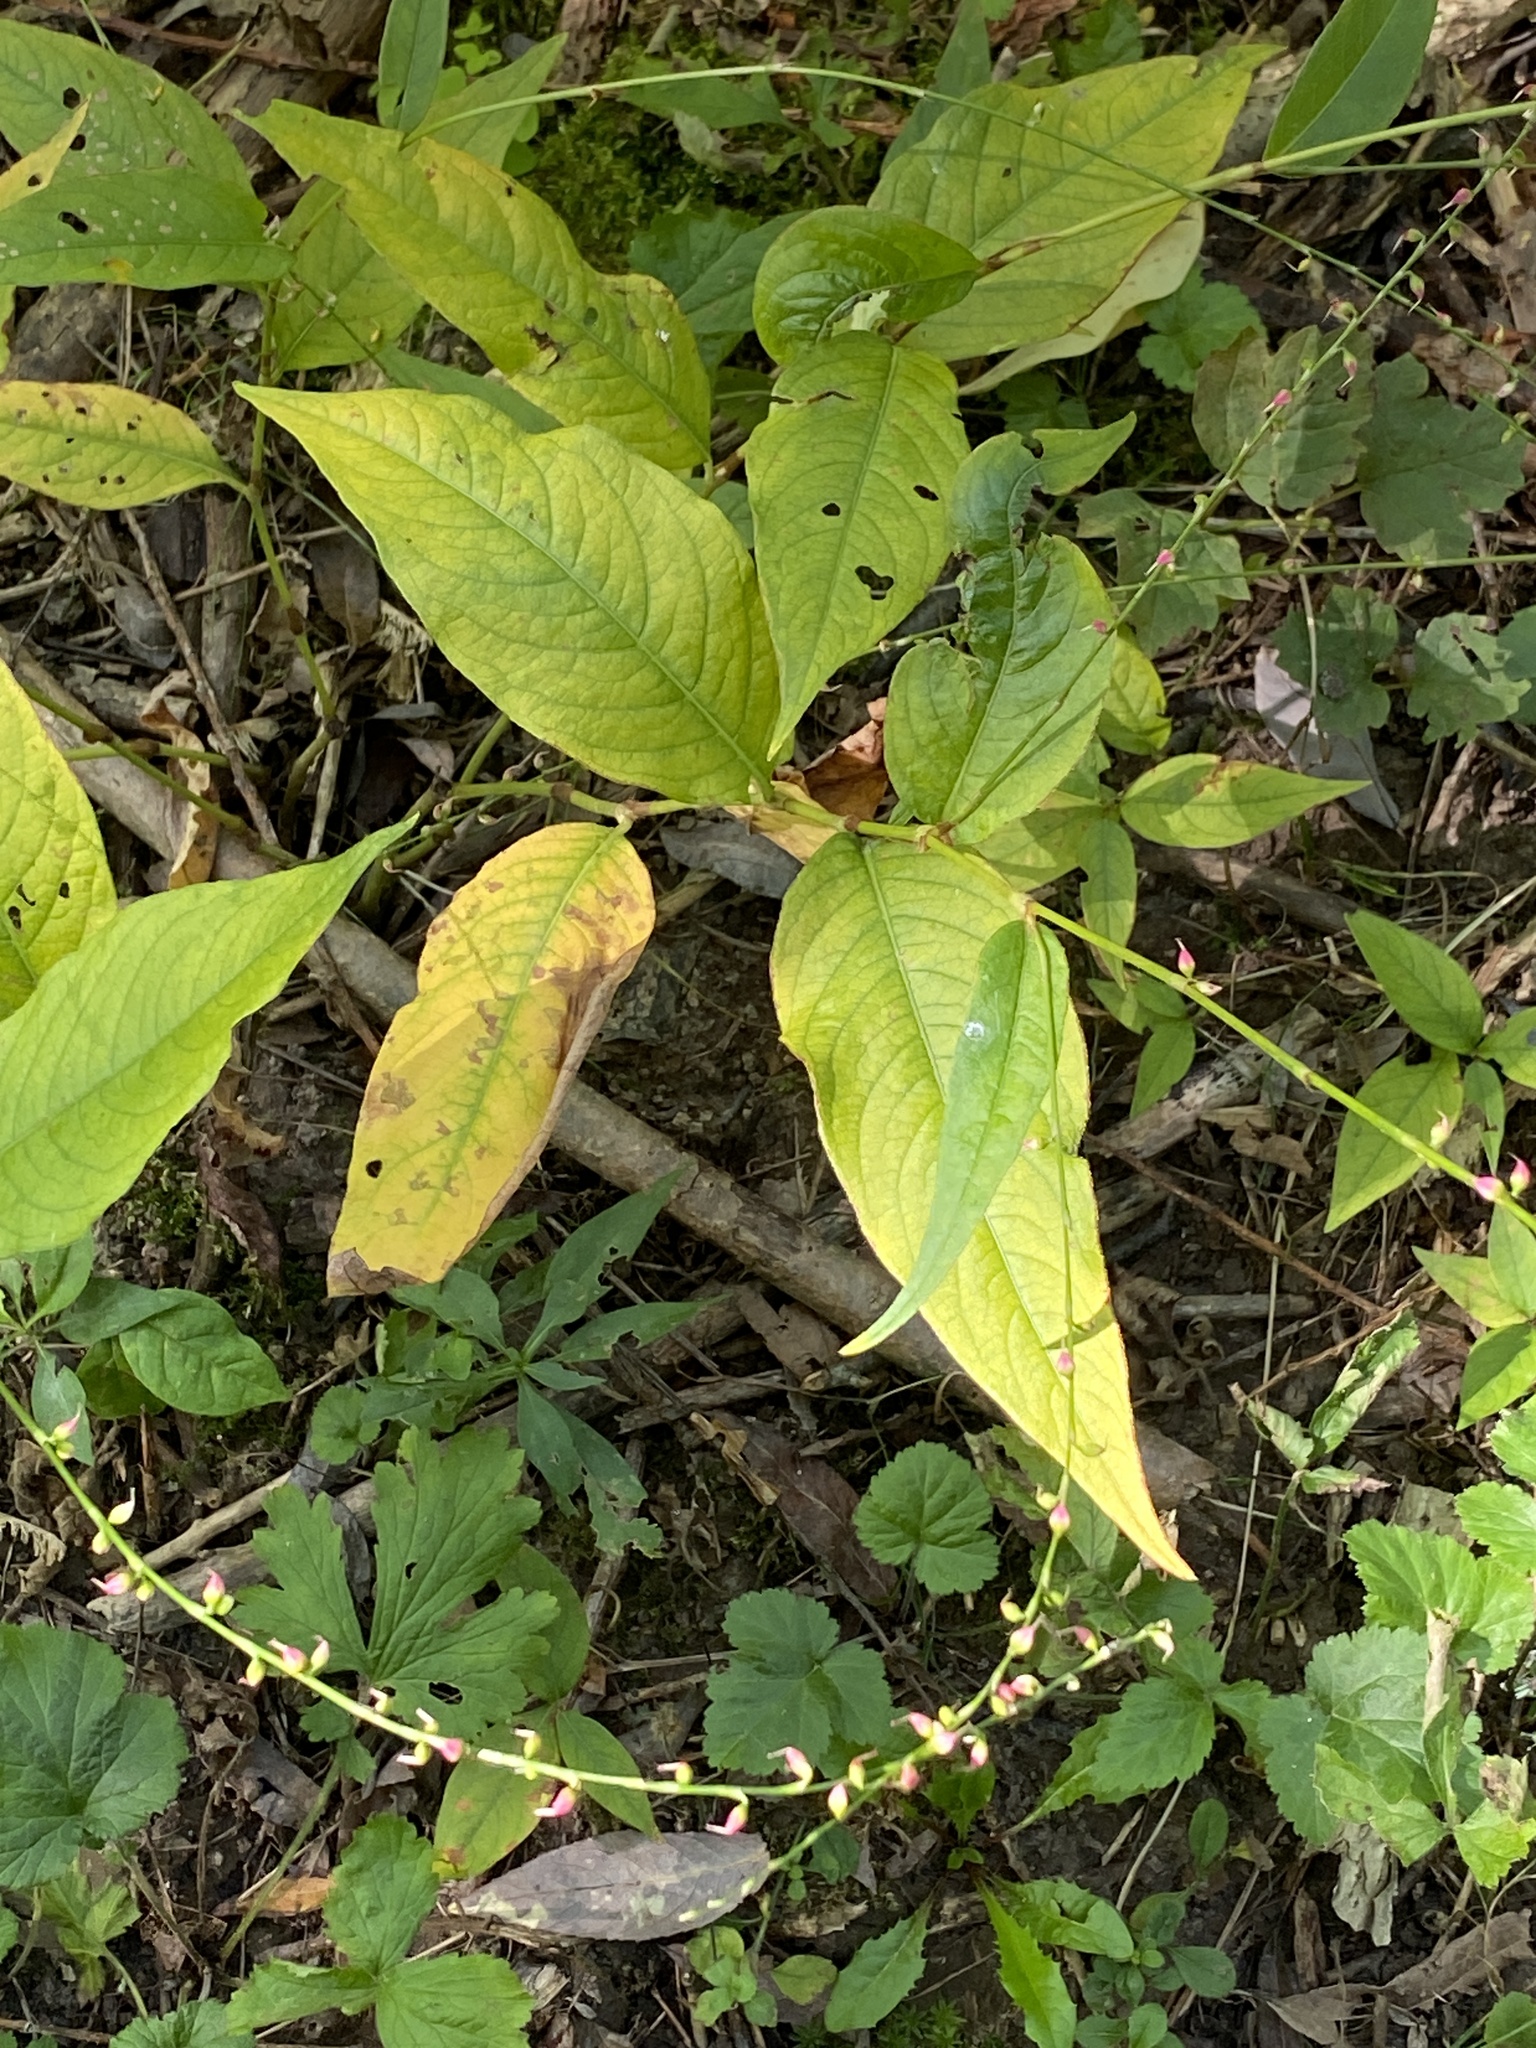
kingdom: Plantae
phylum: Tracheophyta
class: Magnoliopsida
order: Caryophyllales
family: Polygonaceae
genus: Persicaria
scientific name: Persicaria virginiana
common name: Jumpseed
